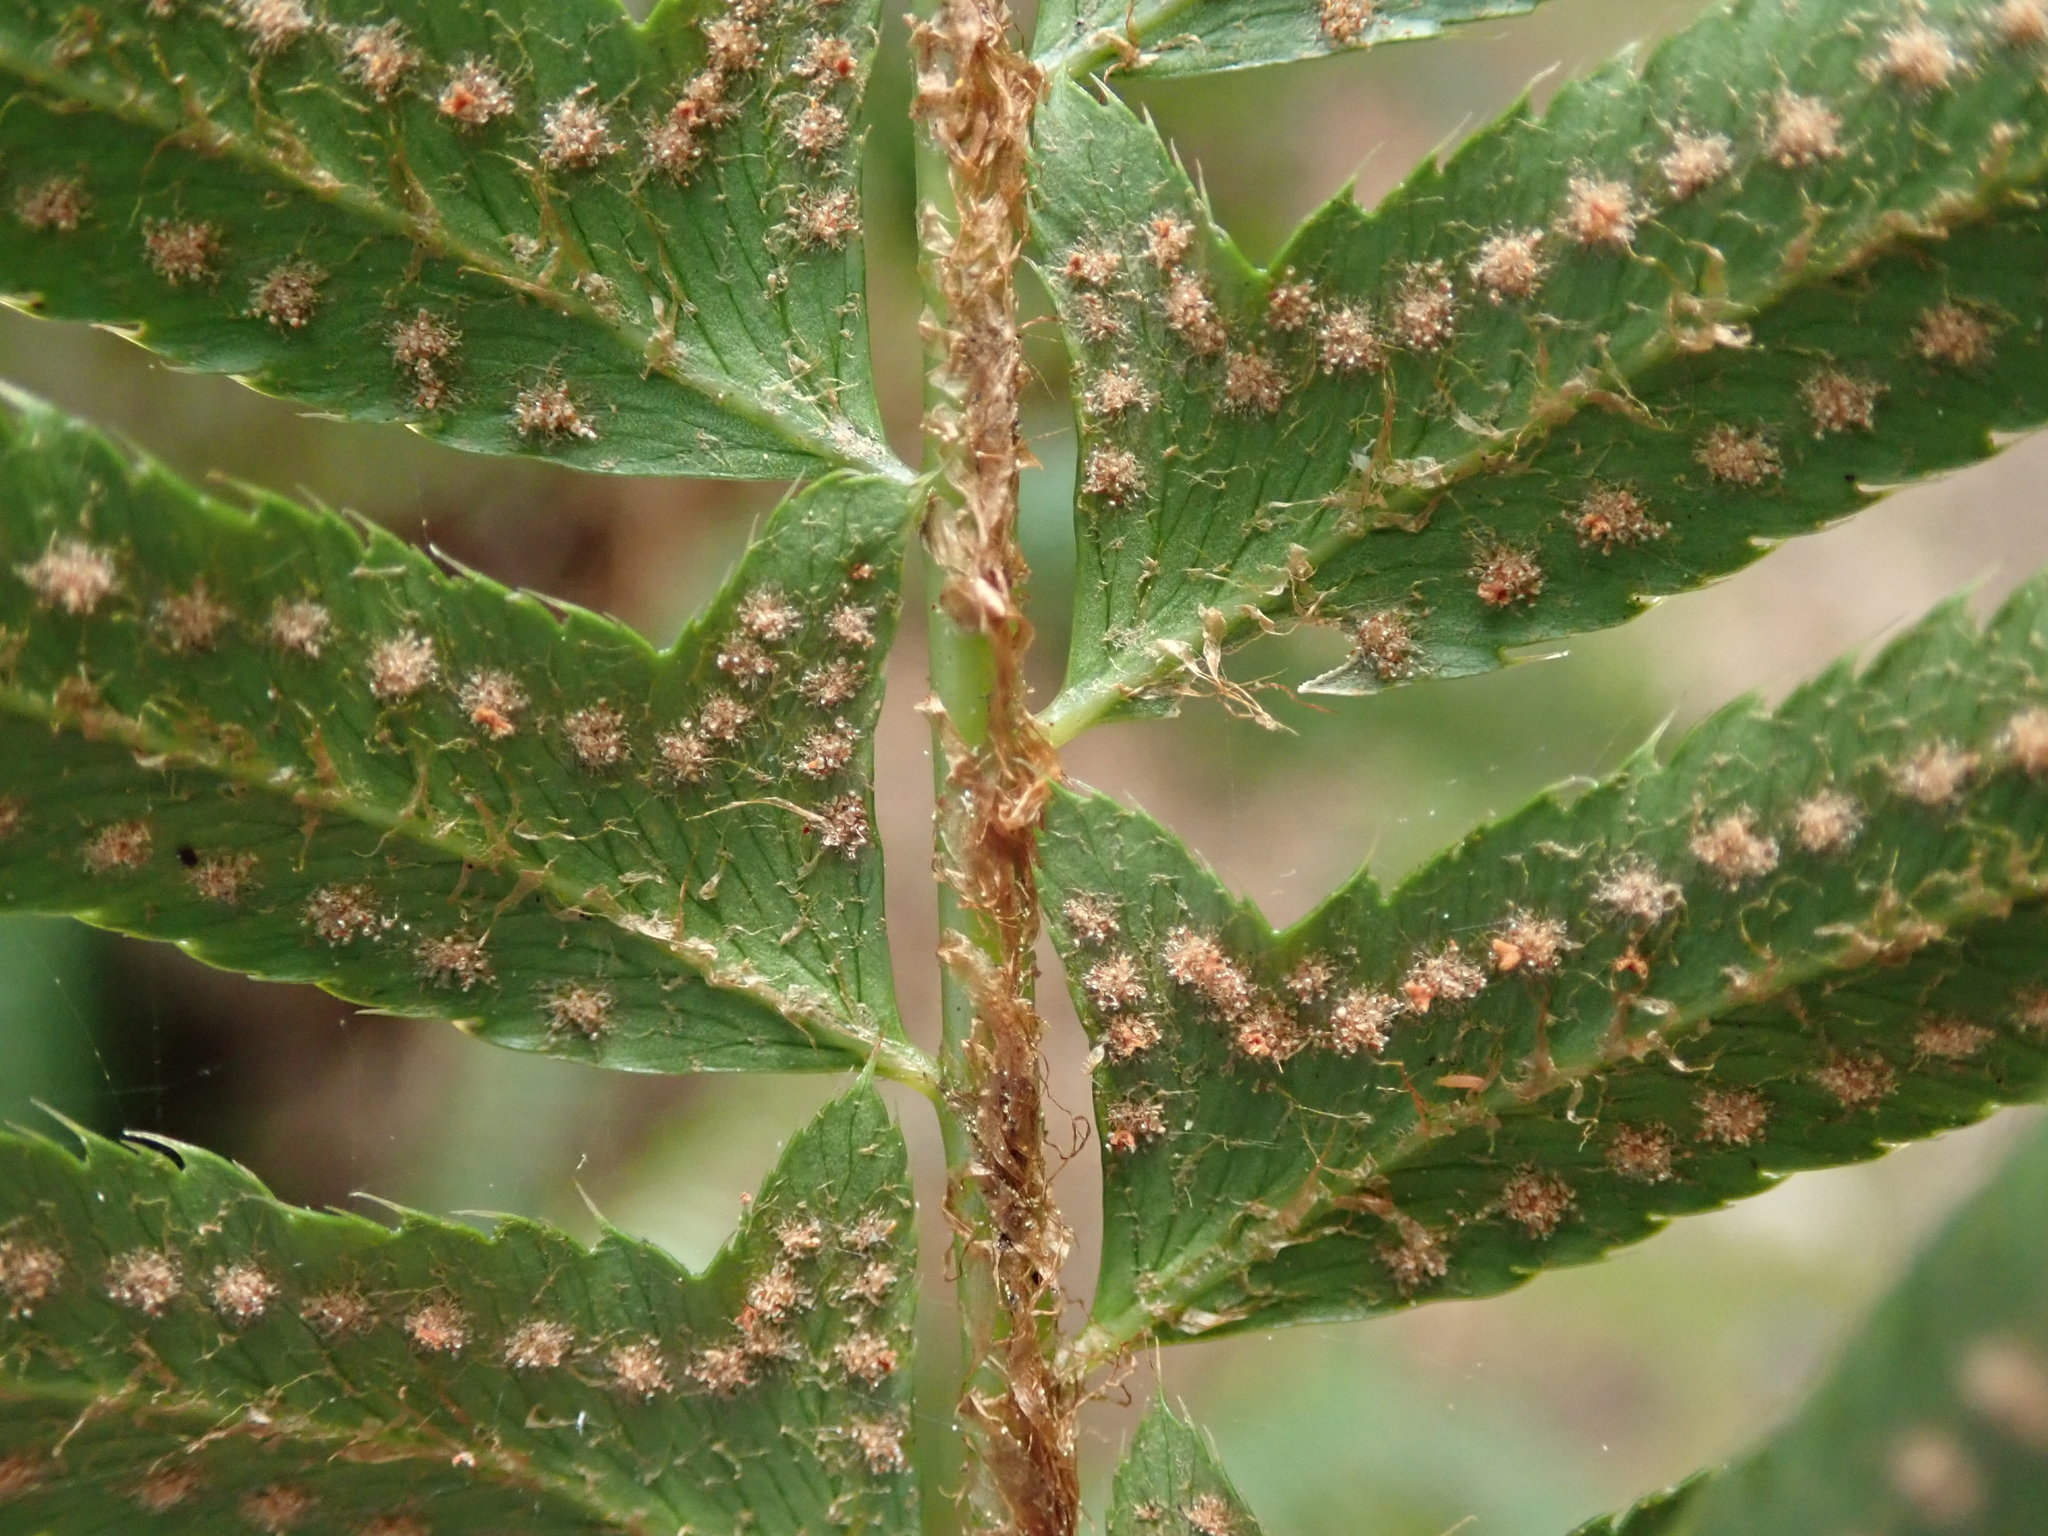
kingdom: Plantae
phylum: Tracheophyta
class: Polypodiopsida
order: Polypodiales
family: Dryopteridaceae
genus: Polystichum
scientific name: Polystichum munitum
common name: Western sword-fern
